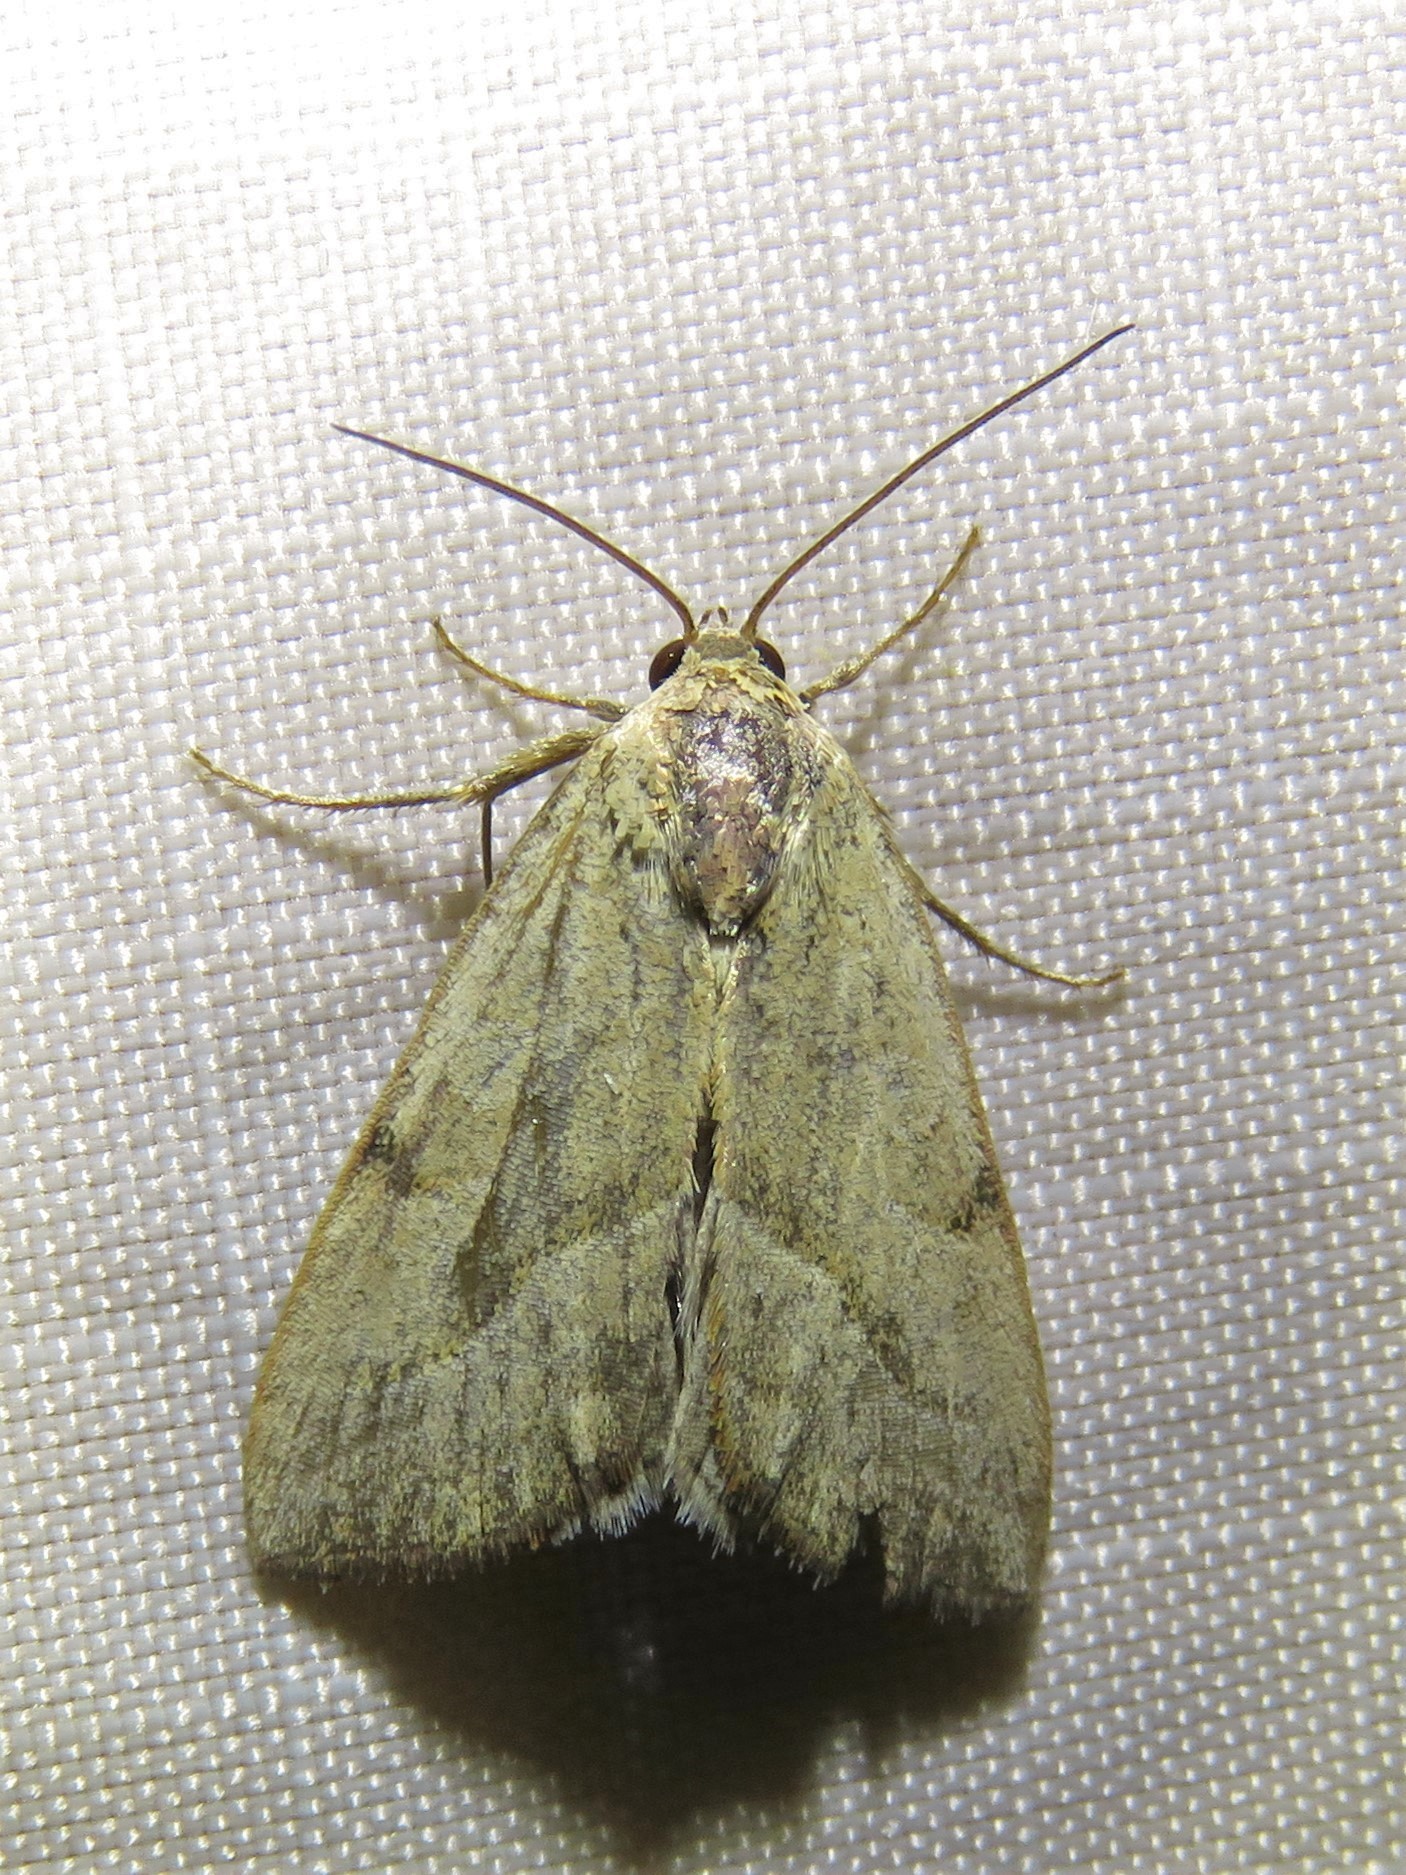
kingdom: Animalia
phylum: Arthropoda
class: Insecta
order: Lepidoptera
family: Noctuidae
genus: Galgula
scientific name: Galgula partita
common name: Wedgeling
